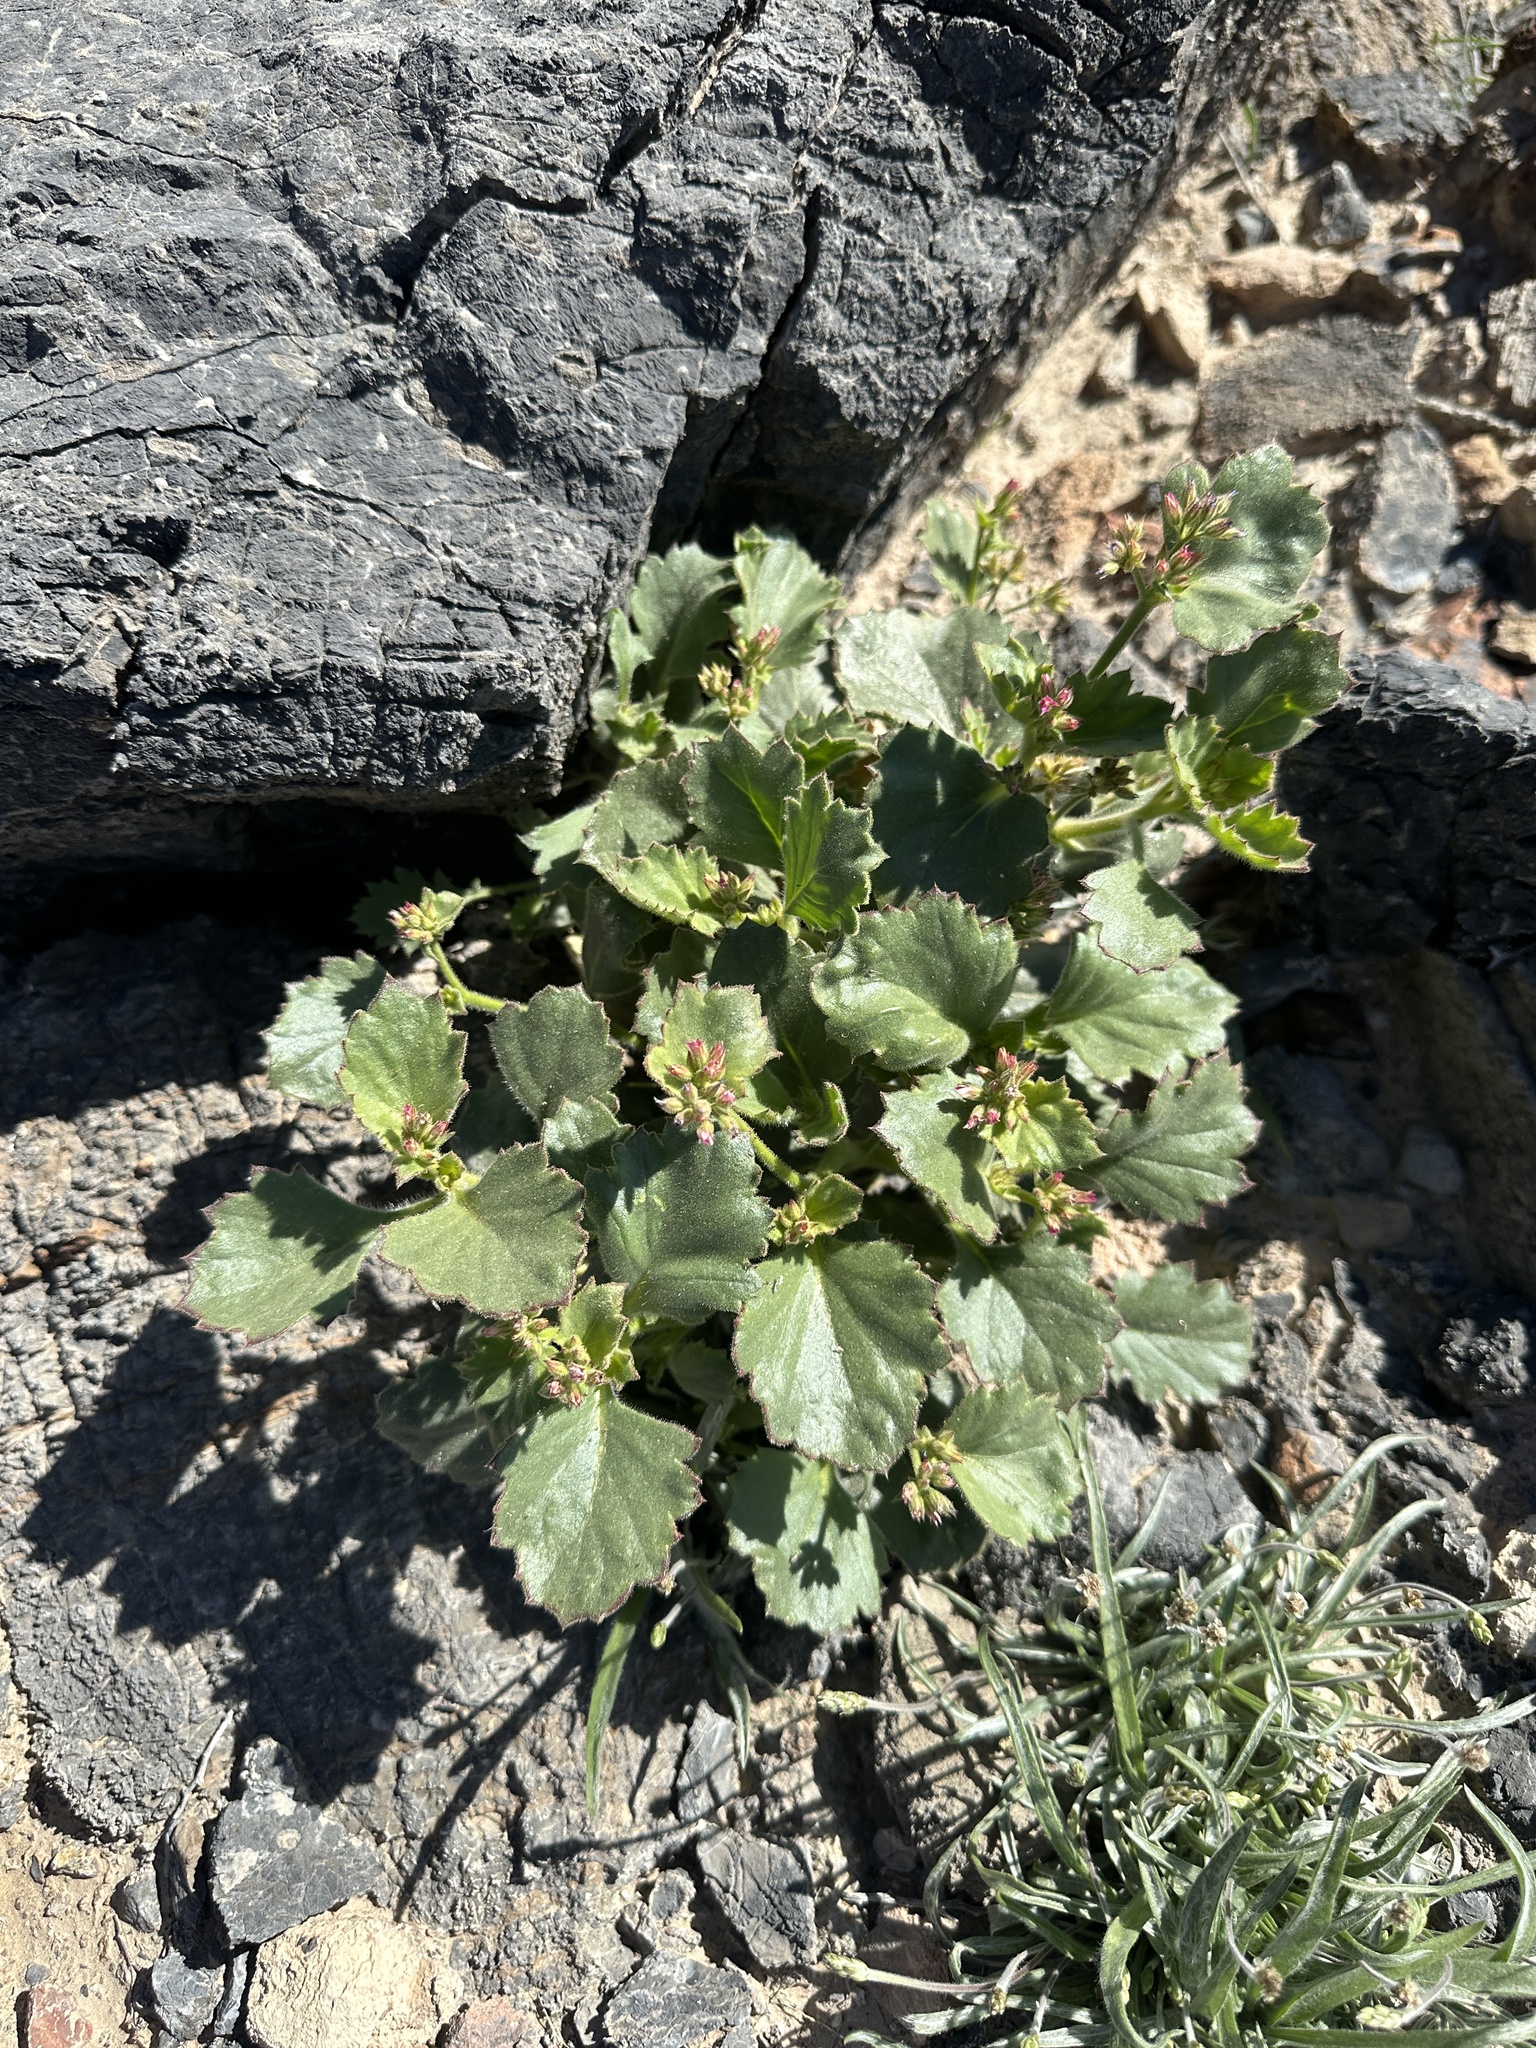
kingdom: Plantae
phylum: Tracheophyta
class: Magnoliopsida
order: Ericales
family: Polemoniaceae
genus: Aliciella
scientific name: Aliciella latifolia
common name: Broad-leaf gilia
